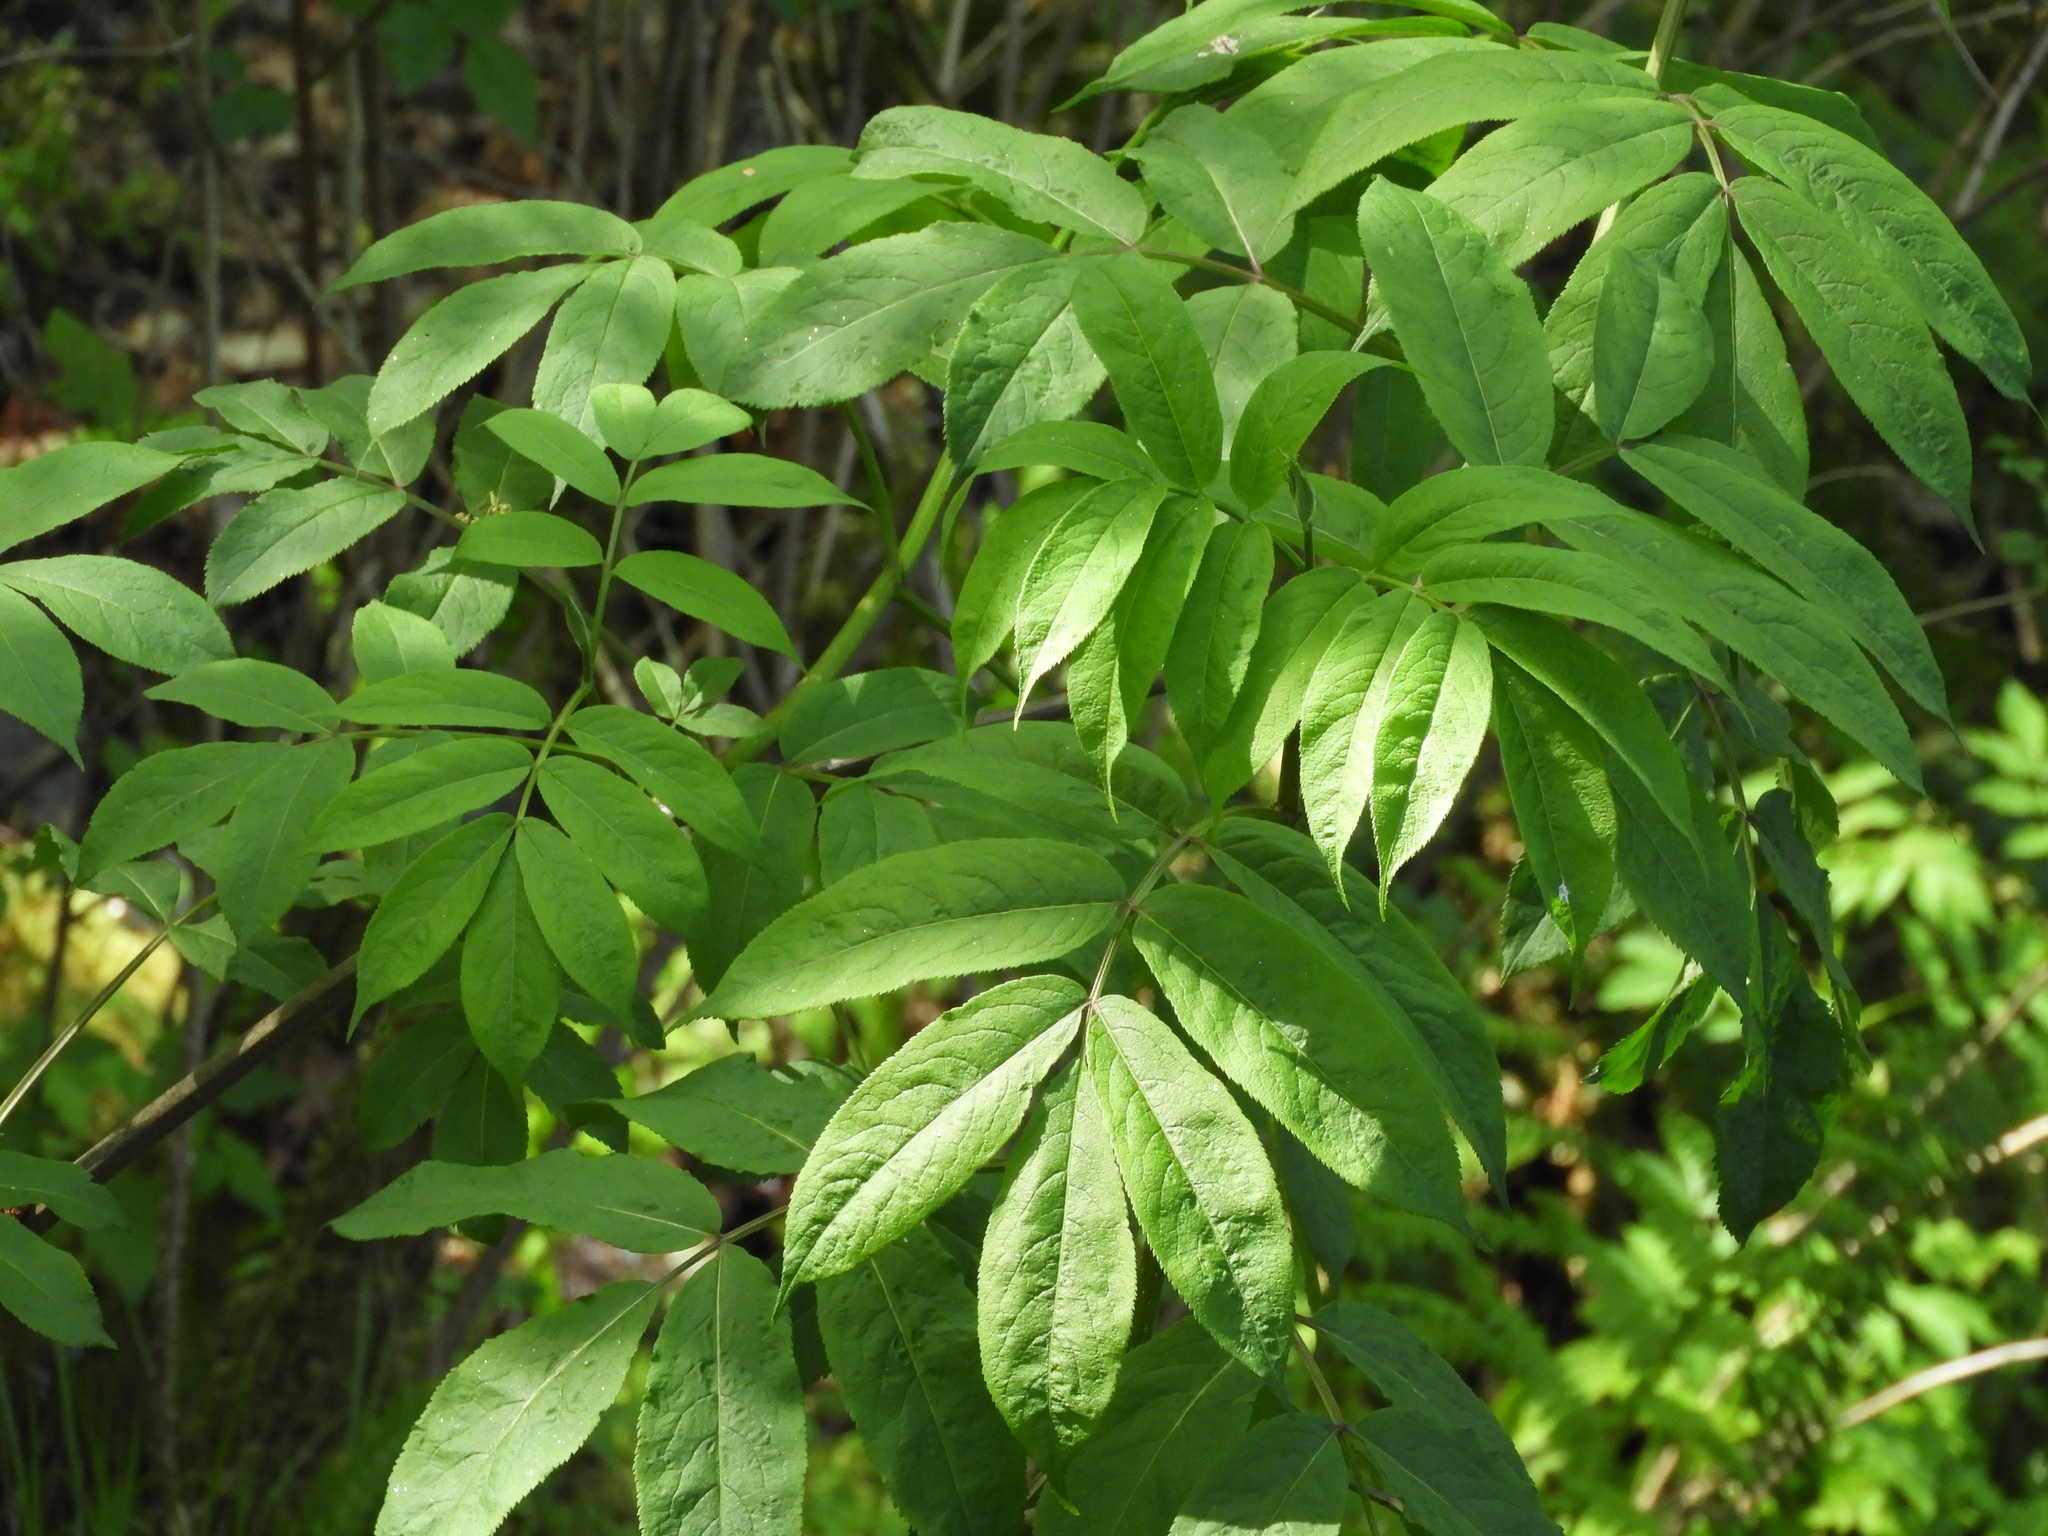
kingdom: Plantae
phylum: Tracheophyta
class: Magnoliopsida
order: Dipsacales
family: Viburnaceae
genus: Sambucus
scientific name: Sambucus racemosa
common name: Red-berried elder
